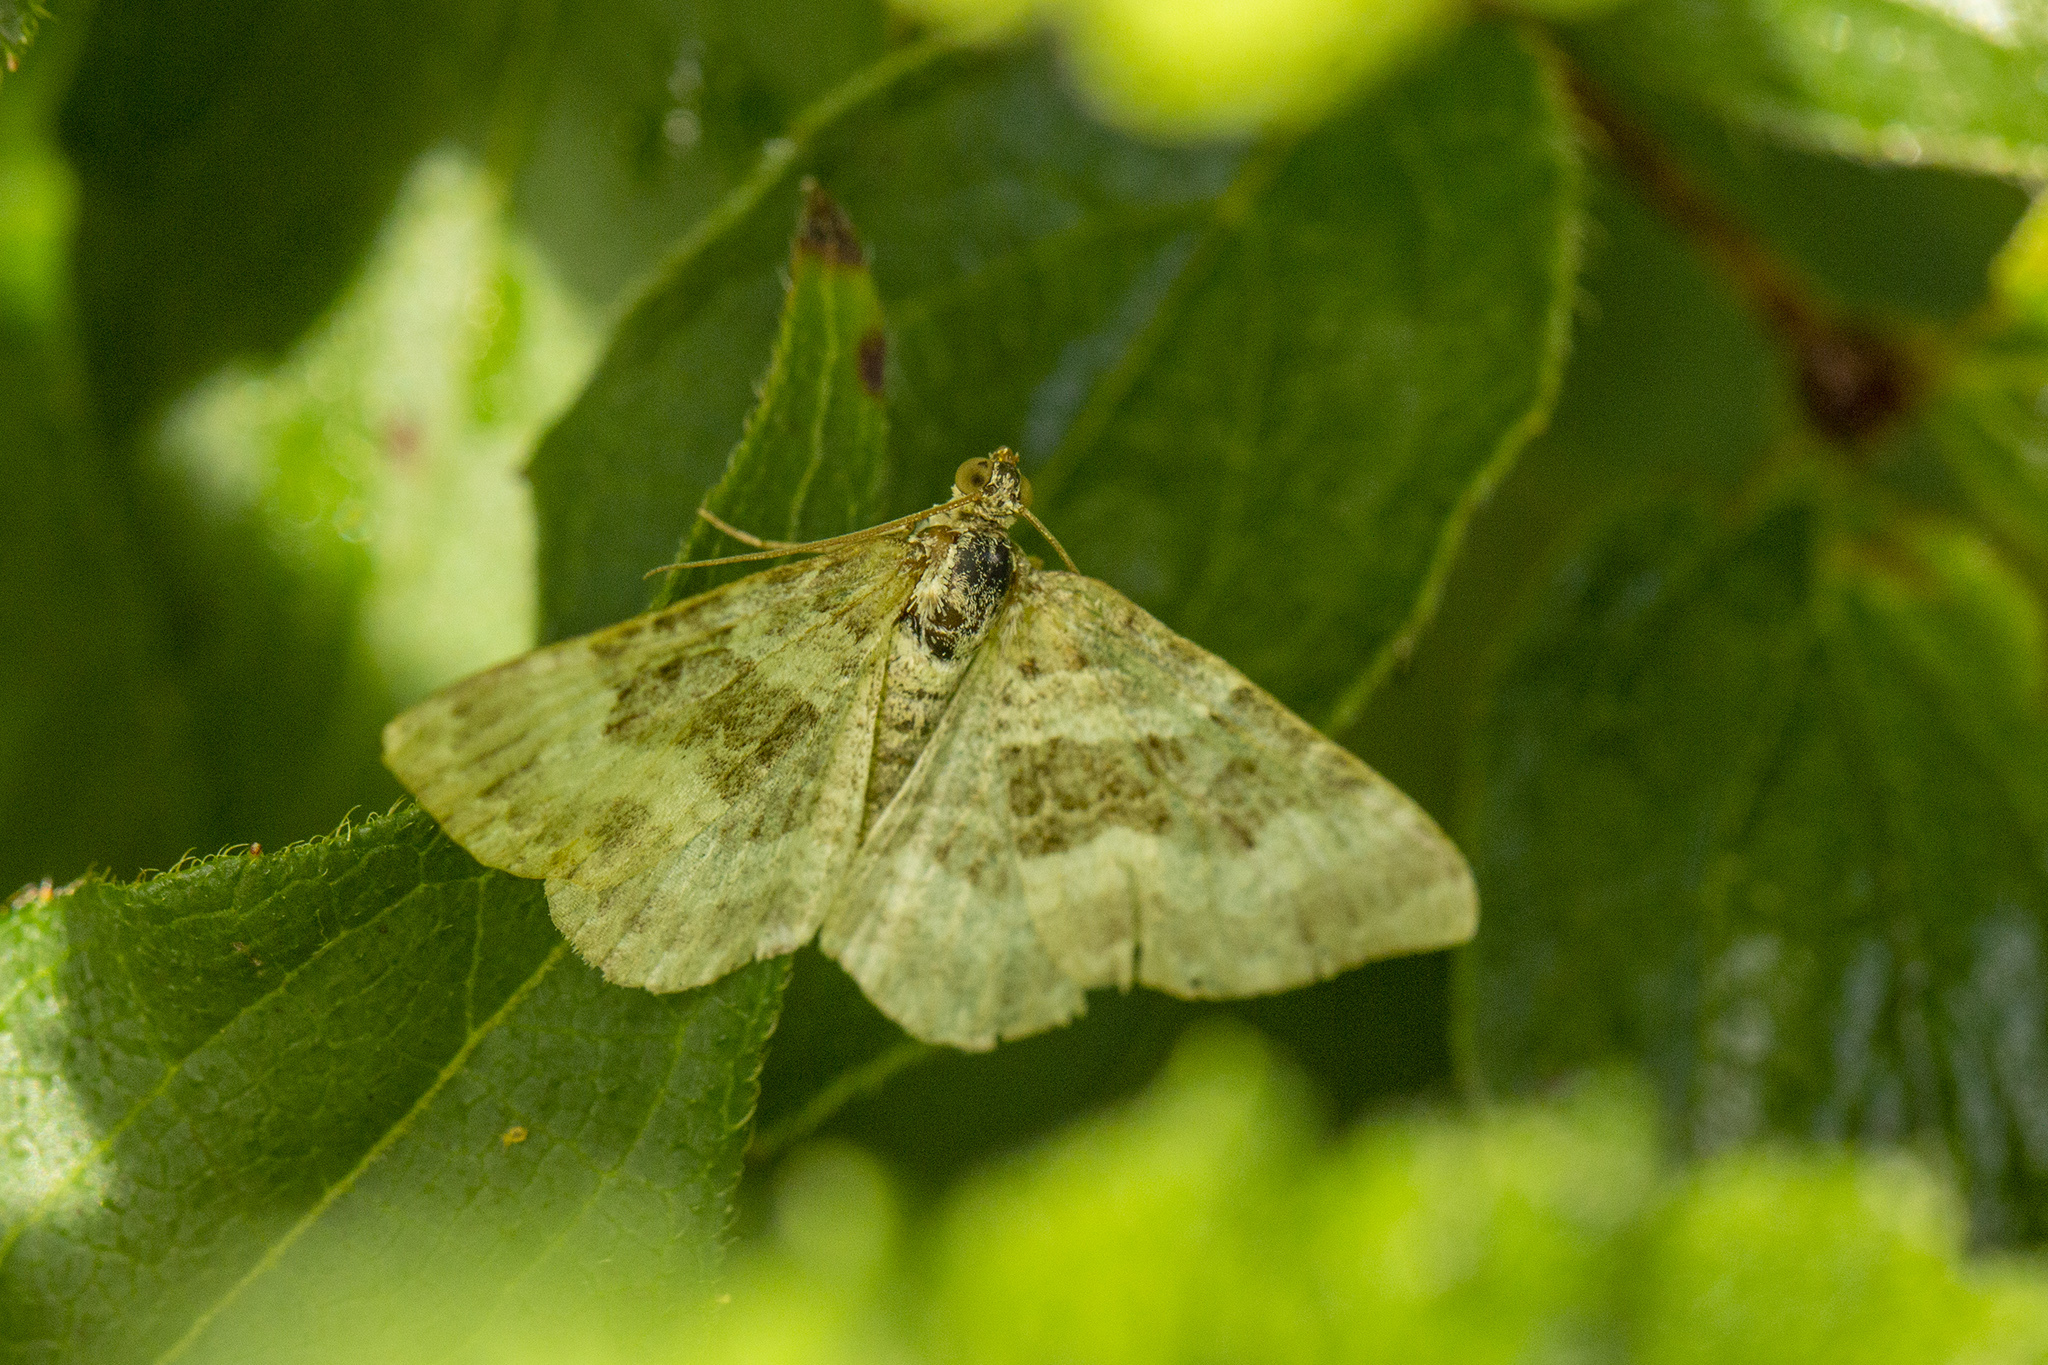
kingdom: Animalia
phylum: Arthropoda
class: Insecta
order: Lepidoptera
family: Geometridae
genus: Epirrhoe
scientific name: Epirrhoe alternata
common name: Common carpet
